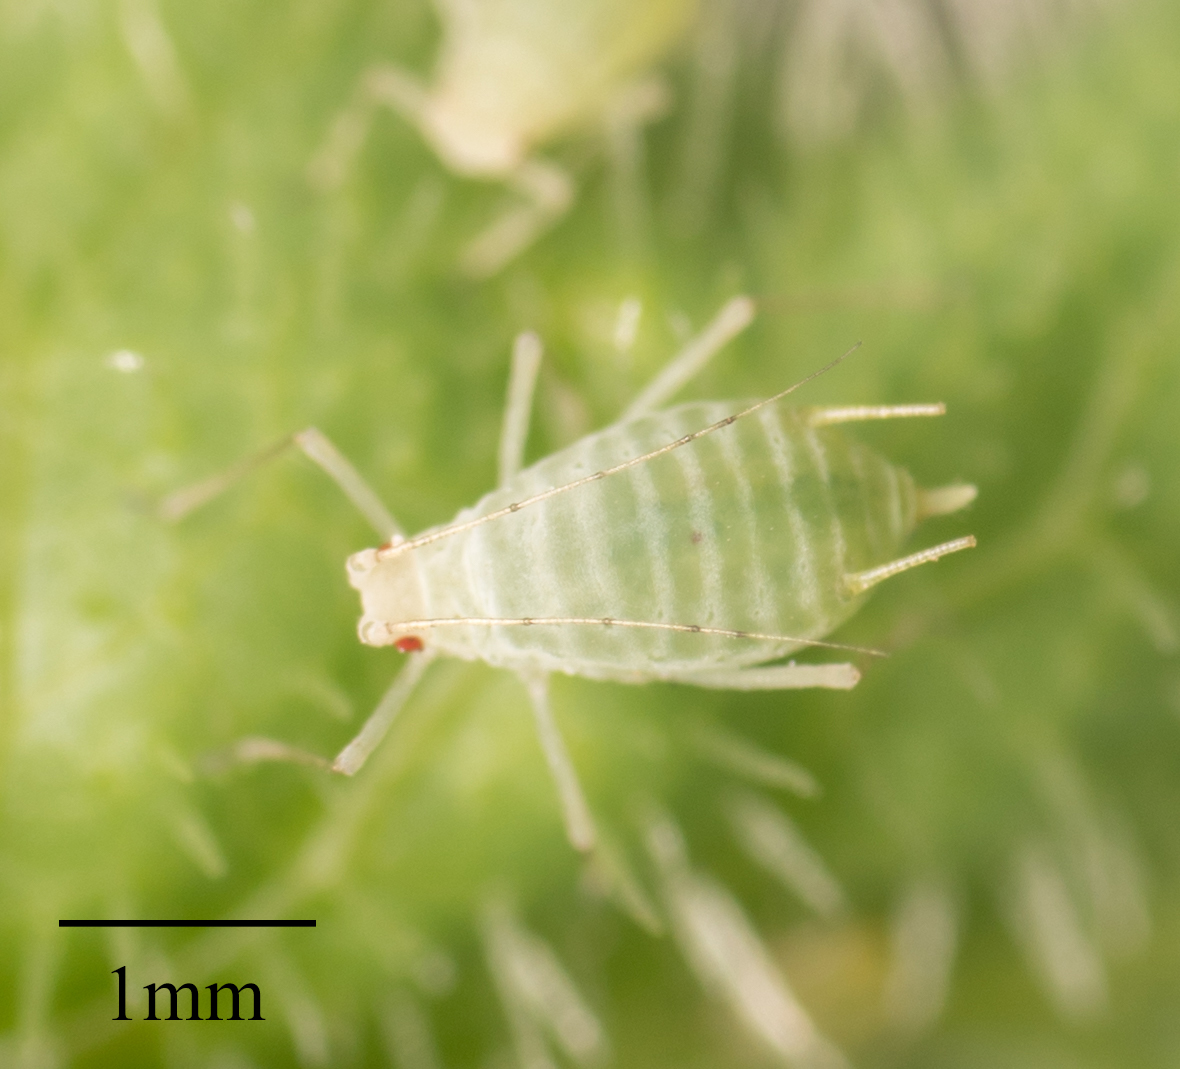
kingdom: Animalia
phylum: Arthropoda
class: Insecta
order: Hemiptera
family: Aphididae
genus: Acyrthosiphon
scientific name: Acyrthosiphon lactucae
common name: Aphid
